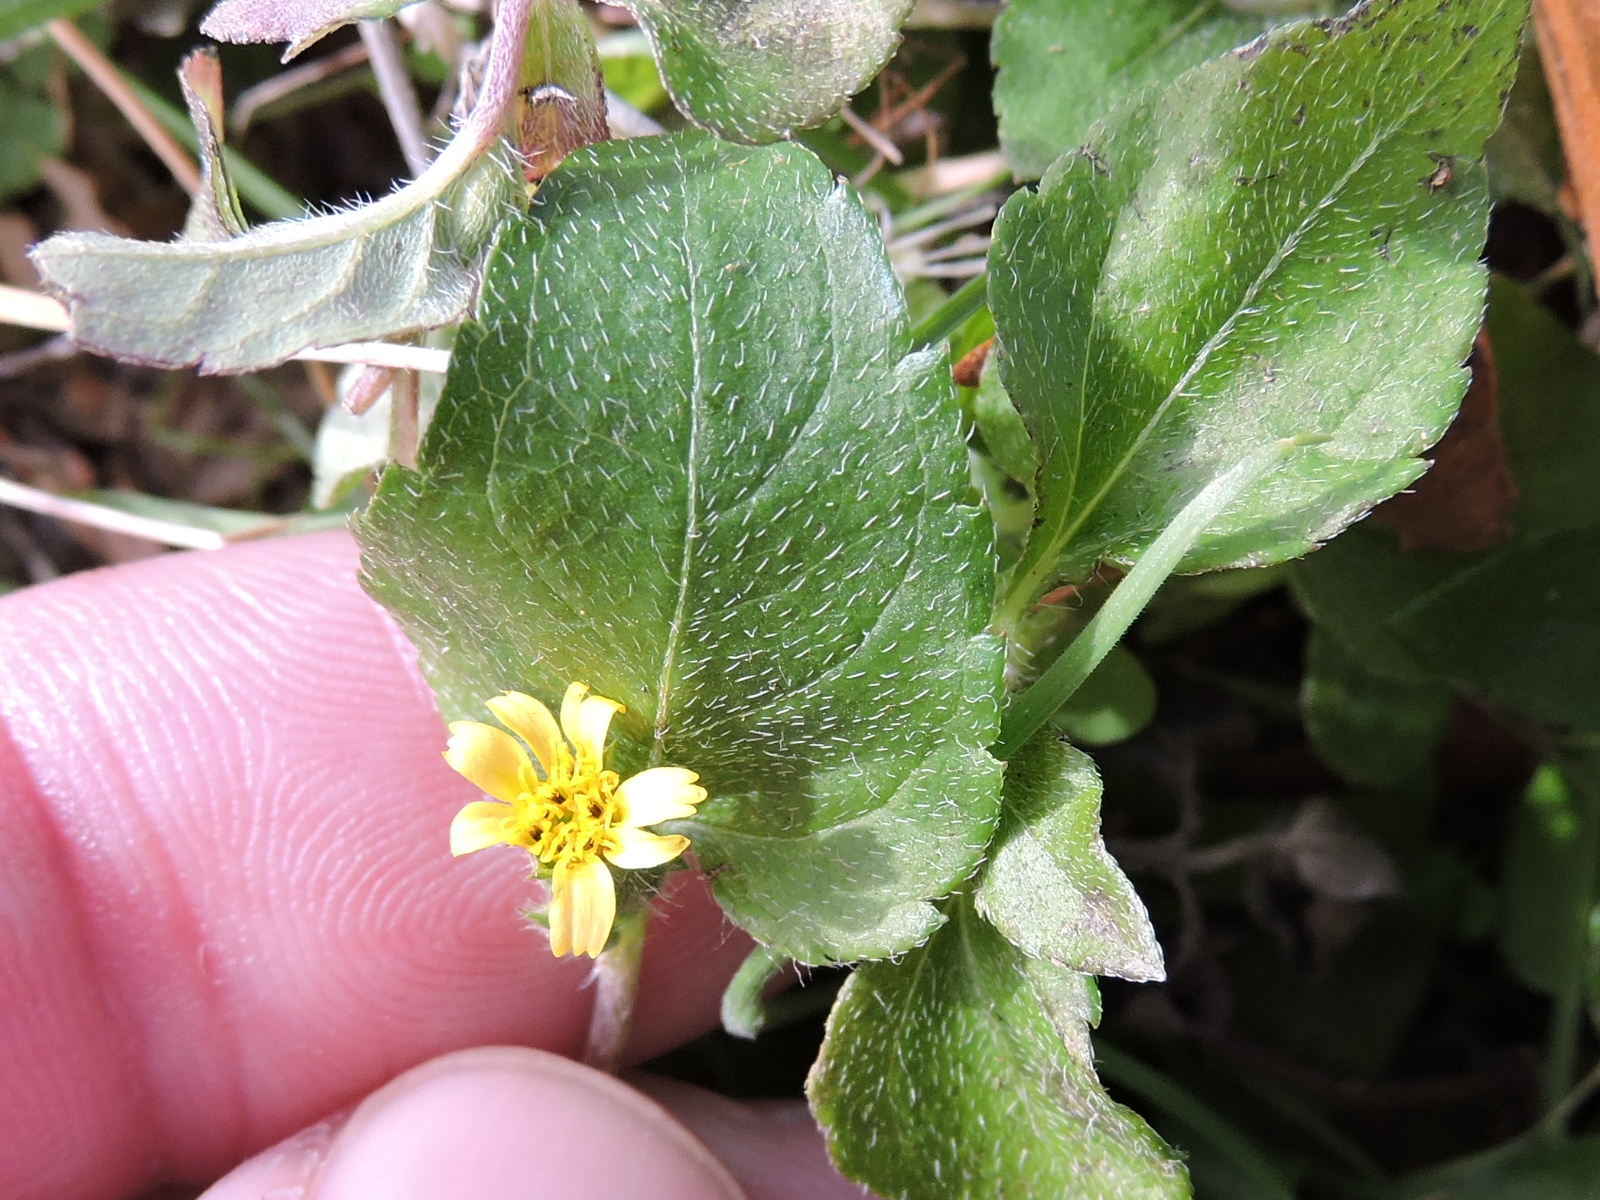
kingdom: Plantae
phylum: Tracheophyta
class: Magnoliopsida
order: Asterales
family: Asteraceae
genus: Calyptocarpus
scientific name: Calyptocarpus vialis
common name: Straggler daisy
